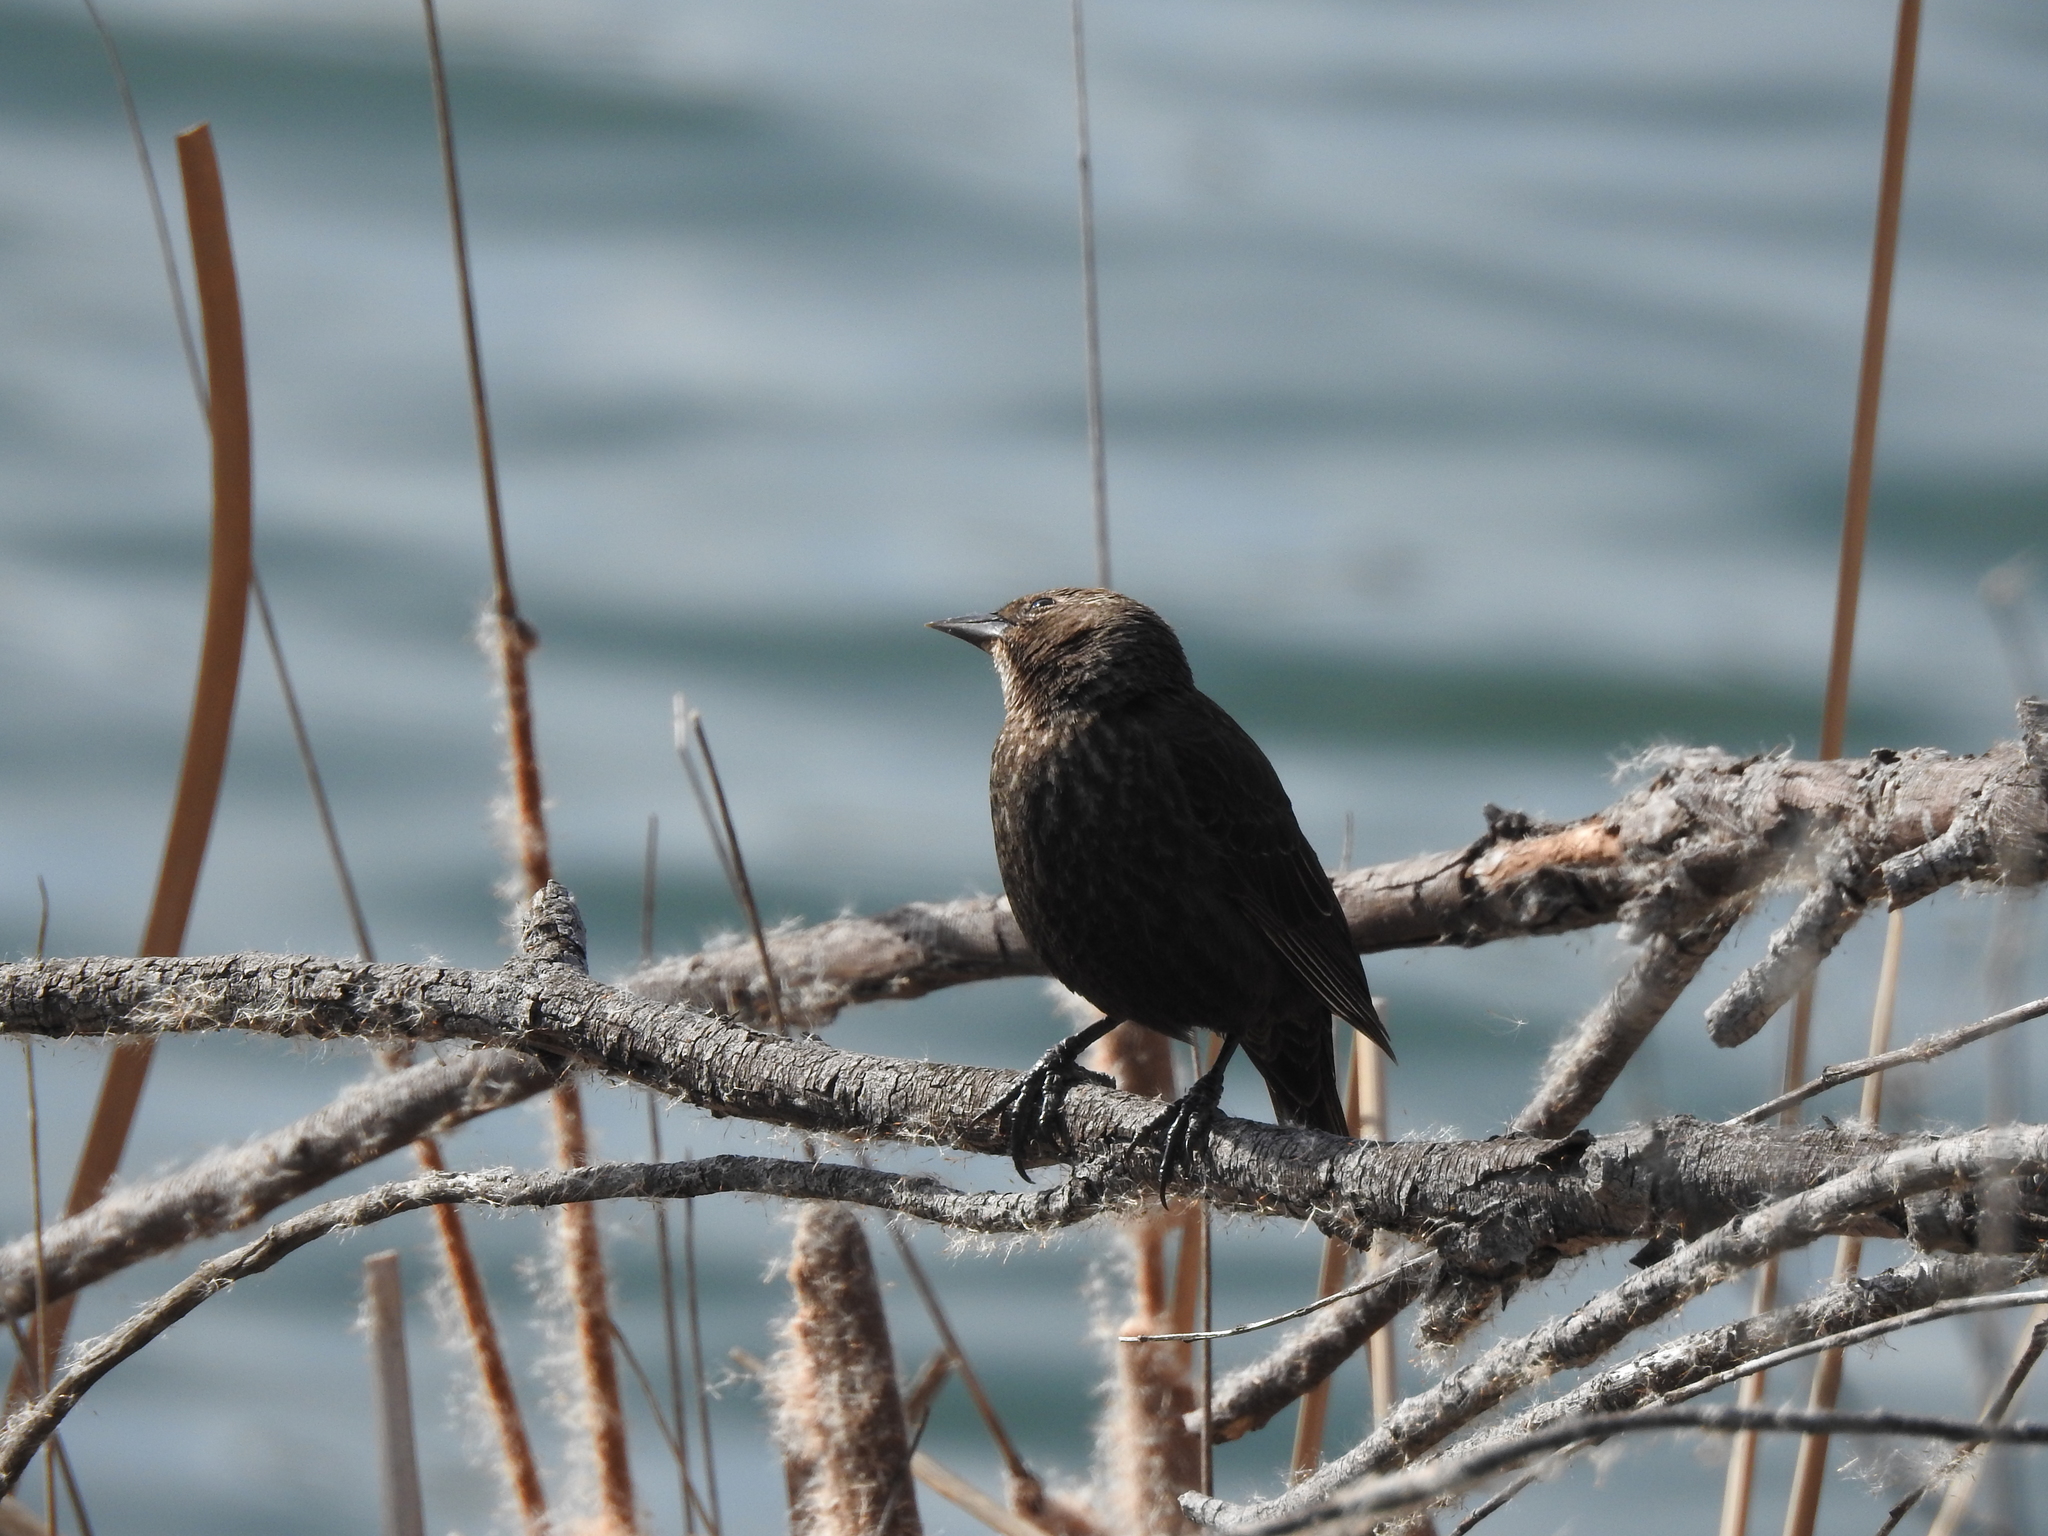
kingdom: Animalia
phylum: Chordata
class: Aves
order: Passeriformes
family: Icteridae
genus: Agelaius
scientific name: Agelaius phoeniceus
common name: Red-winged blackbird
